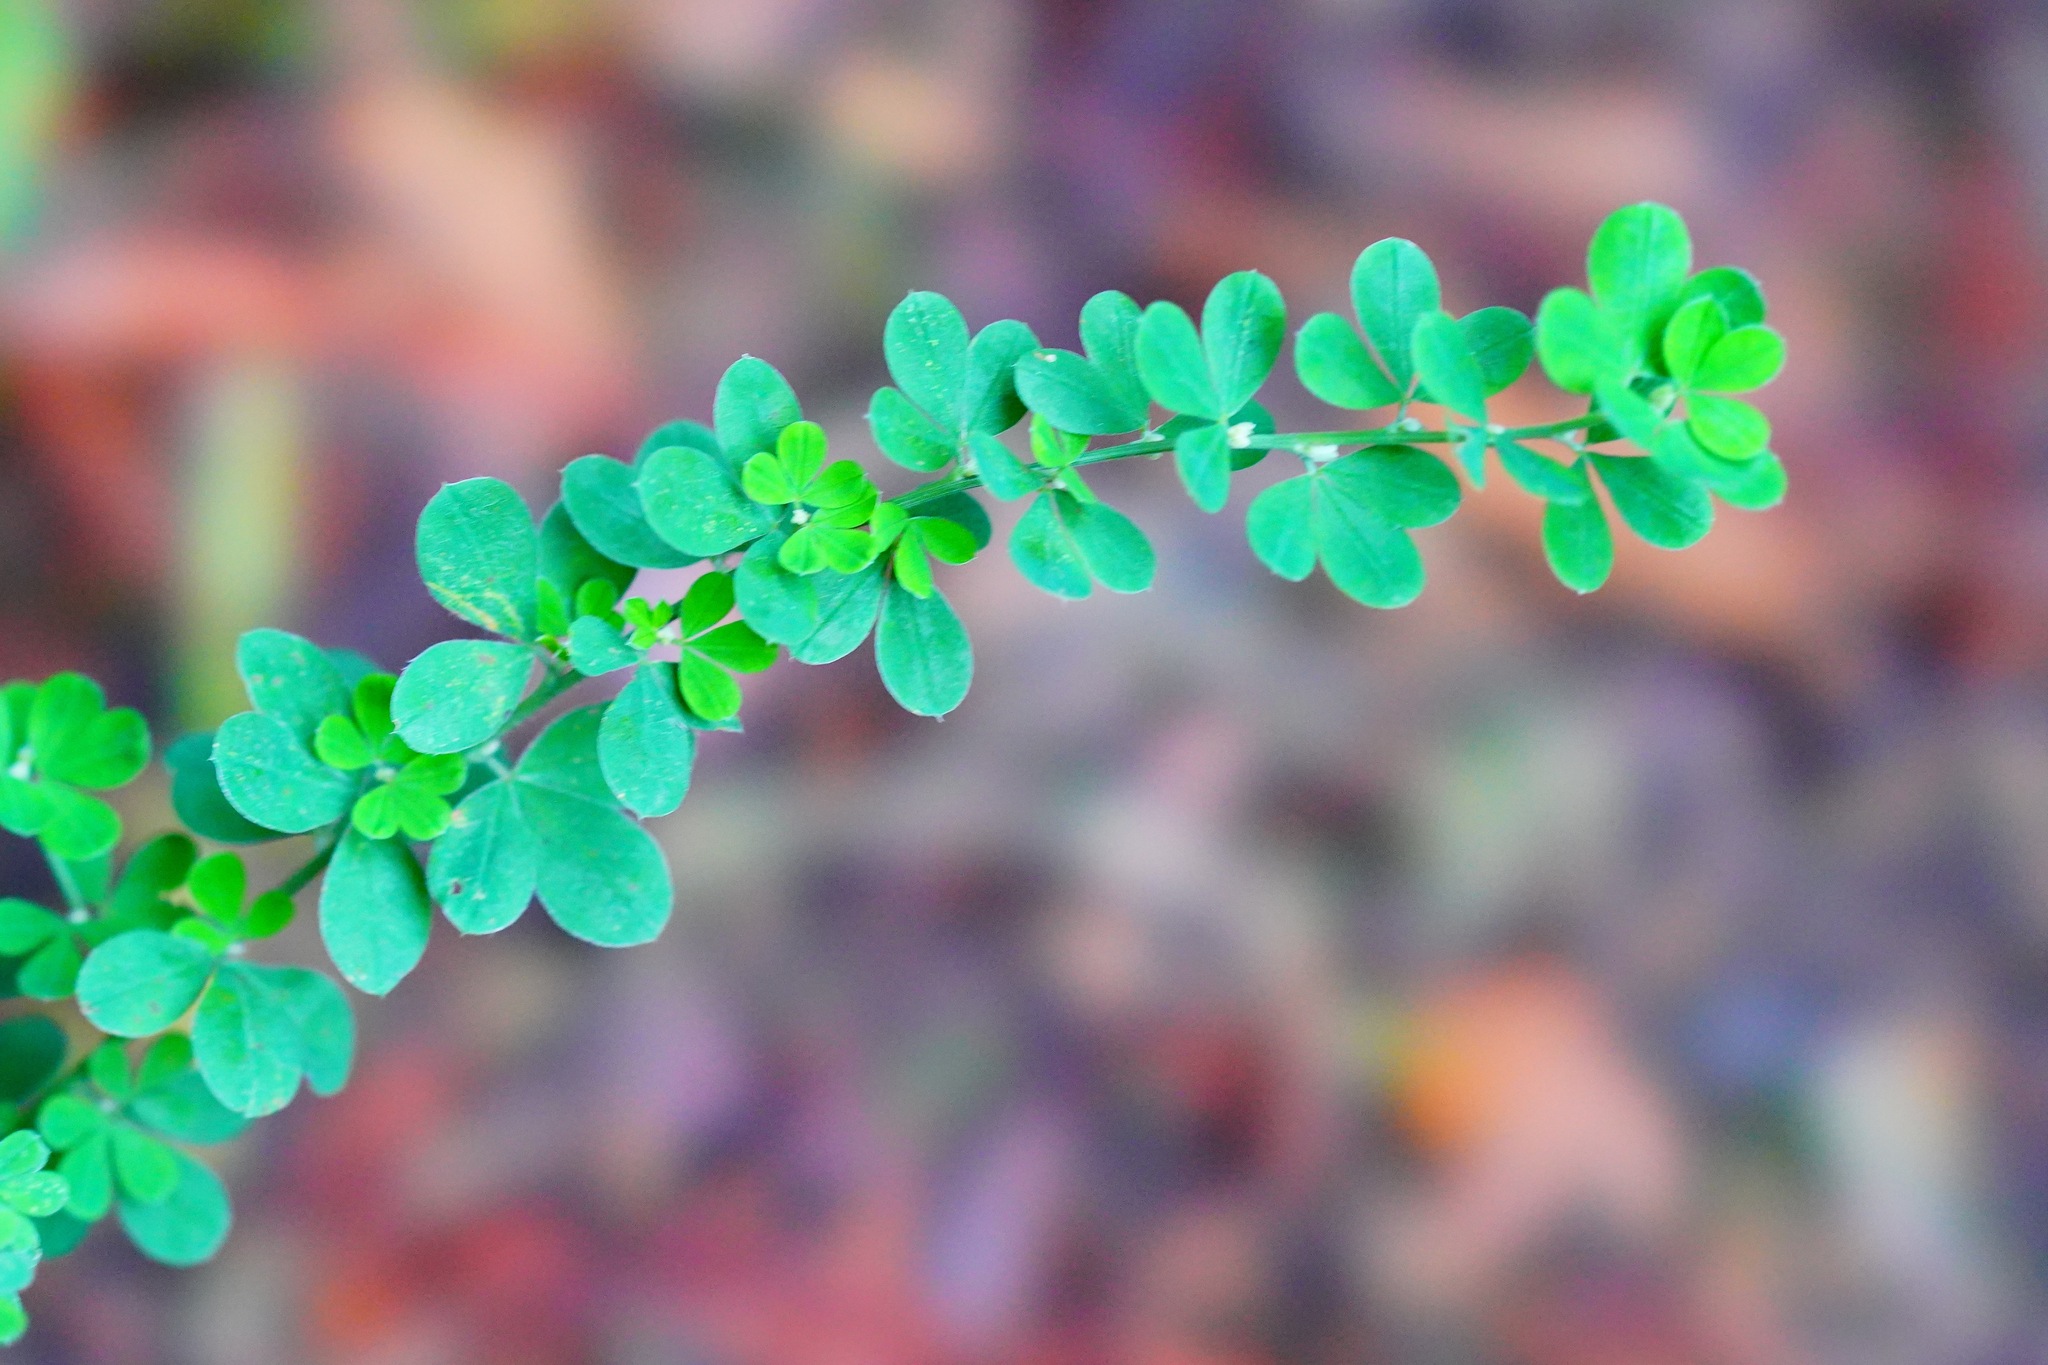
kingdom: Plantae
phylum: Tracheophyta
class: Magnoliopsida
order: Fabales
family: Fabaceae
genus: Genista
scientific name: Genista monspessulana
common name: Montpellier broom
